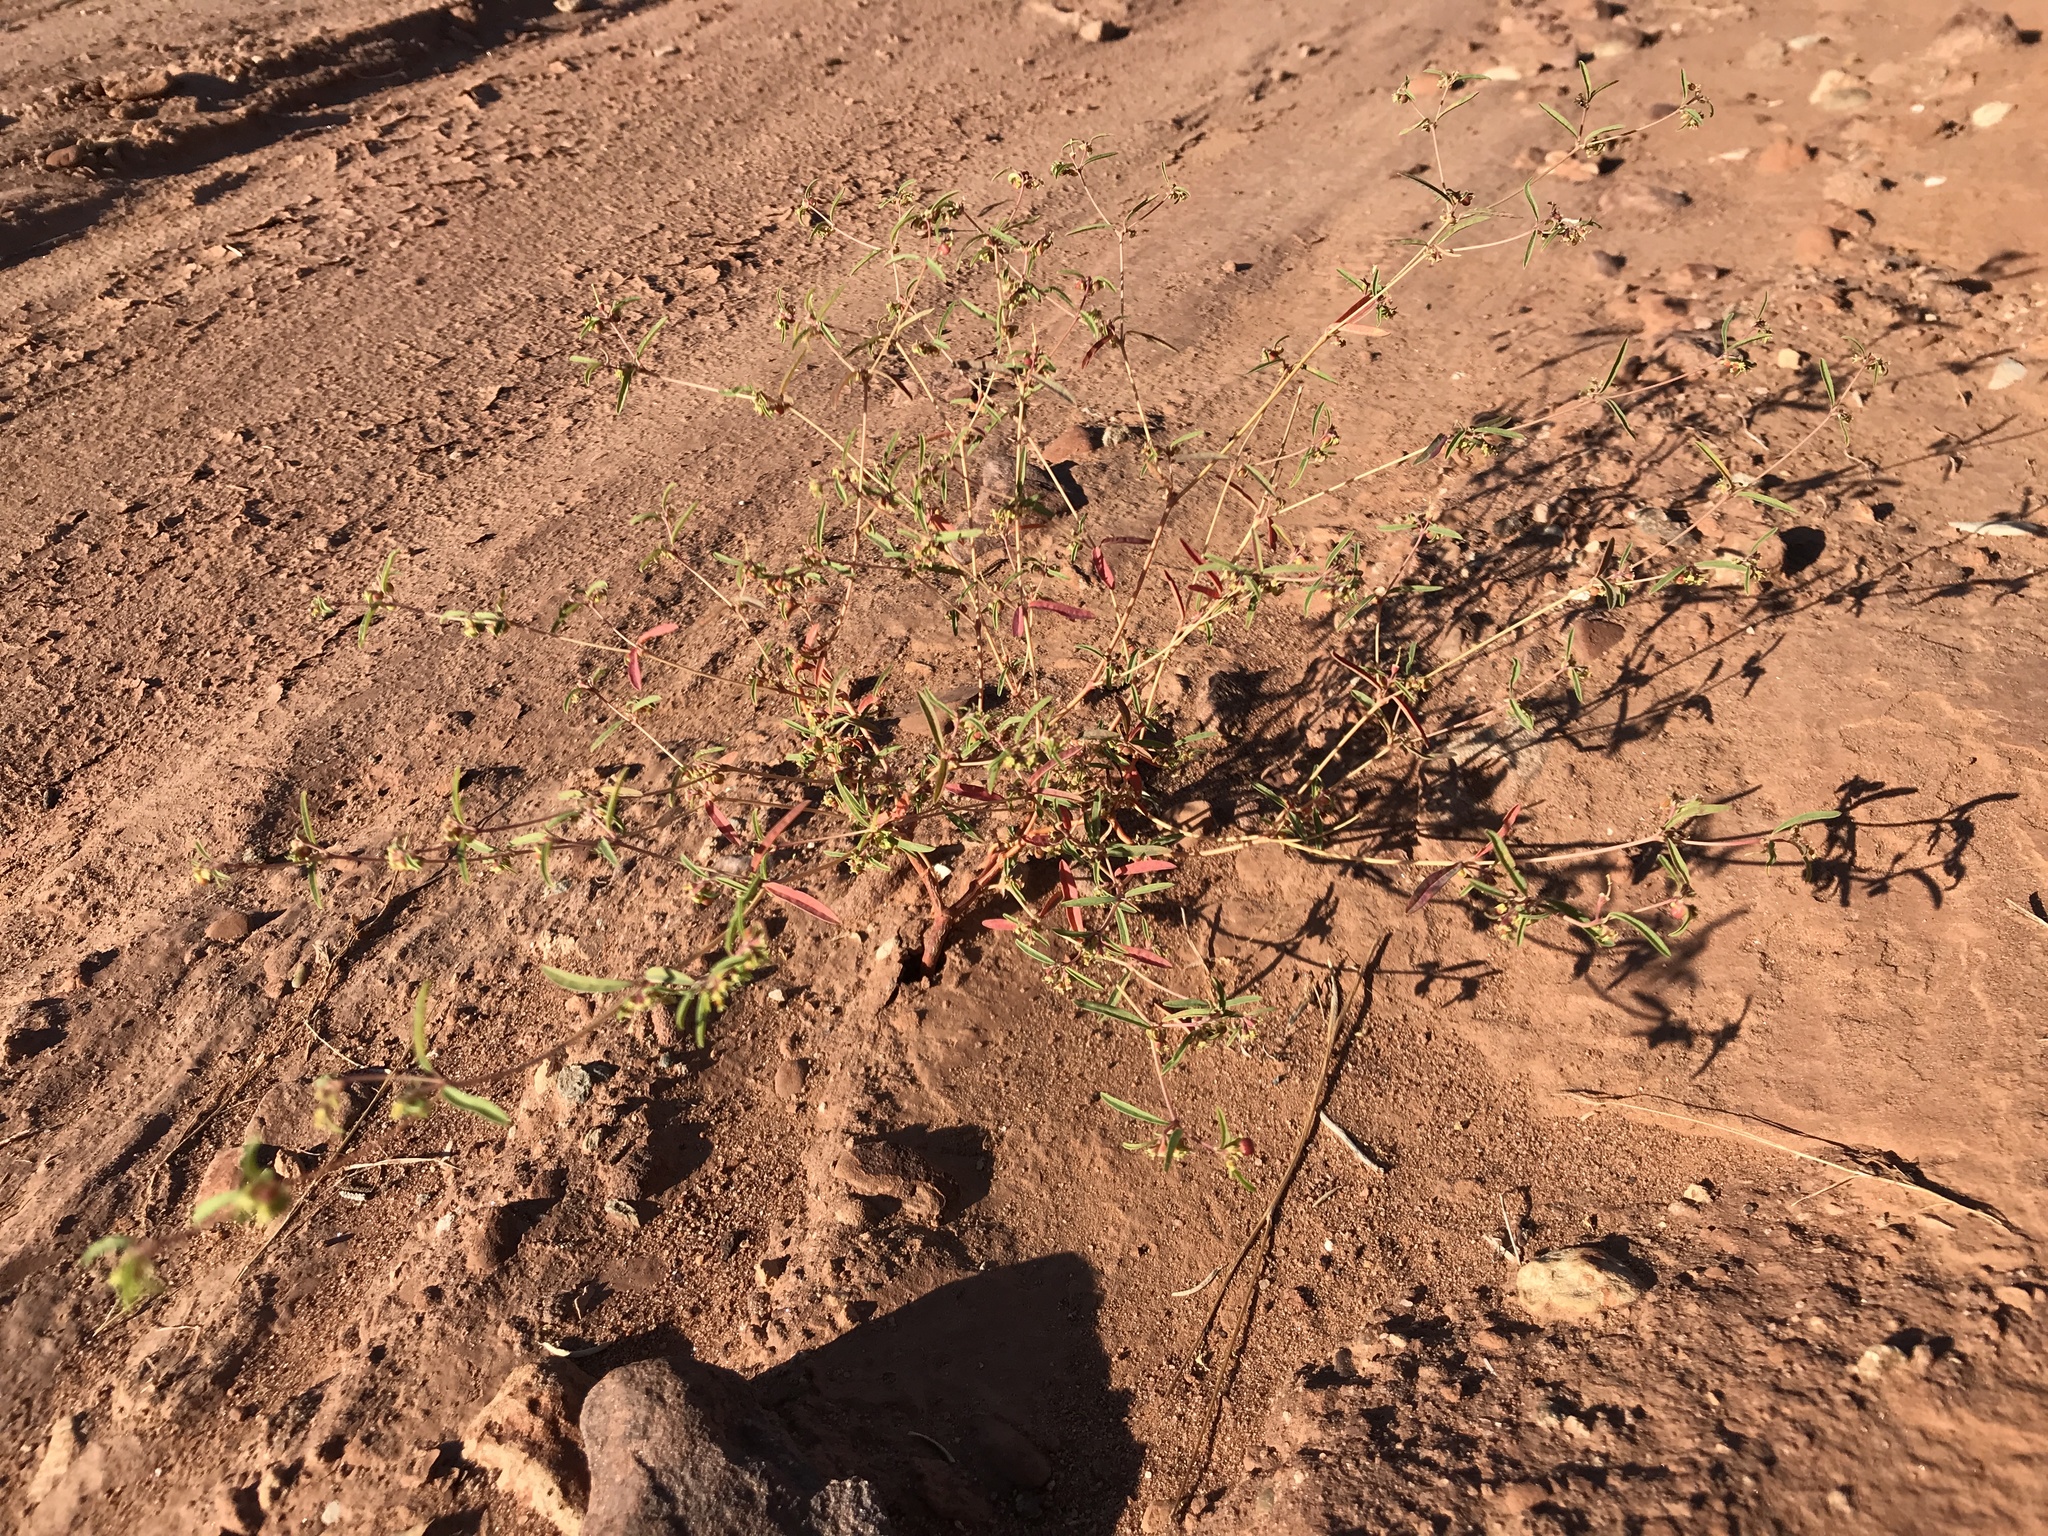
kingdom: Plantae
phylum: Tracheophyta
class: Magnoliopsida
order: Malpighiales
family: Euphorbiaceae
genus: Euphorbia
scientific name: Euphorbia parryi
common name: Dune spurge
